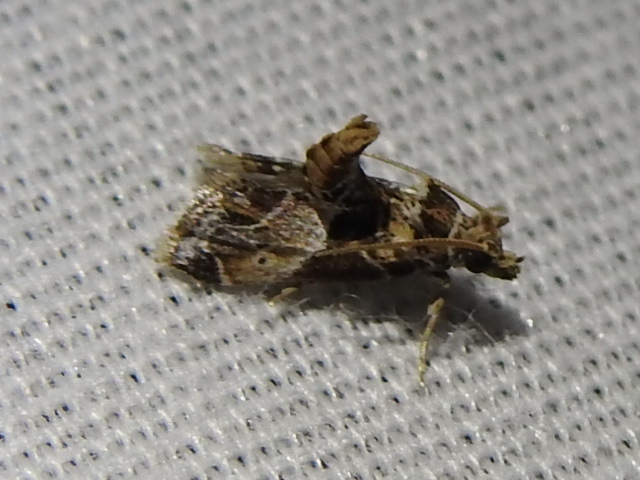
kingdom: Animalia
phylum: Arthropoda
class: Insecta
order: Lepidoptera
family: Pyralidae
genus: Neodavisia
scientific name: Neodavisia melusina
